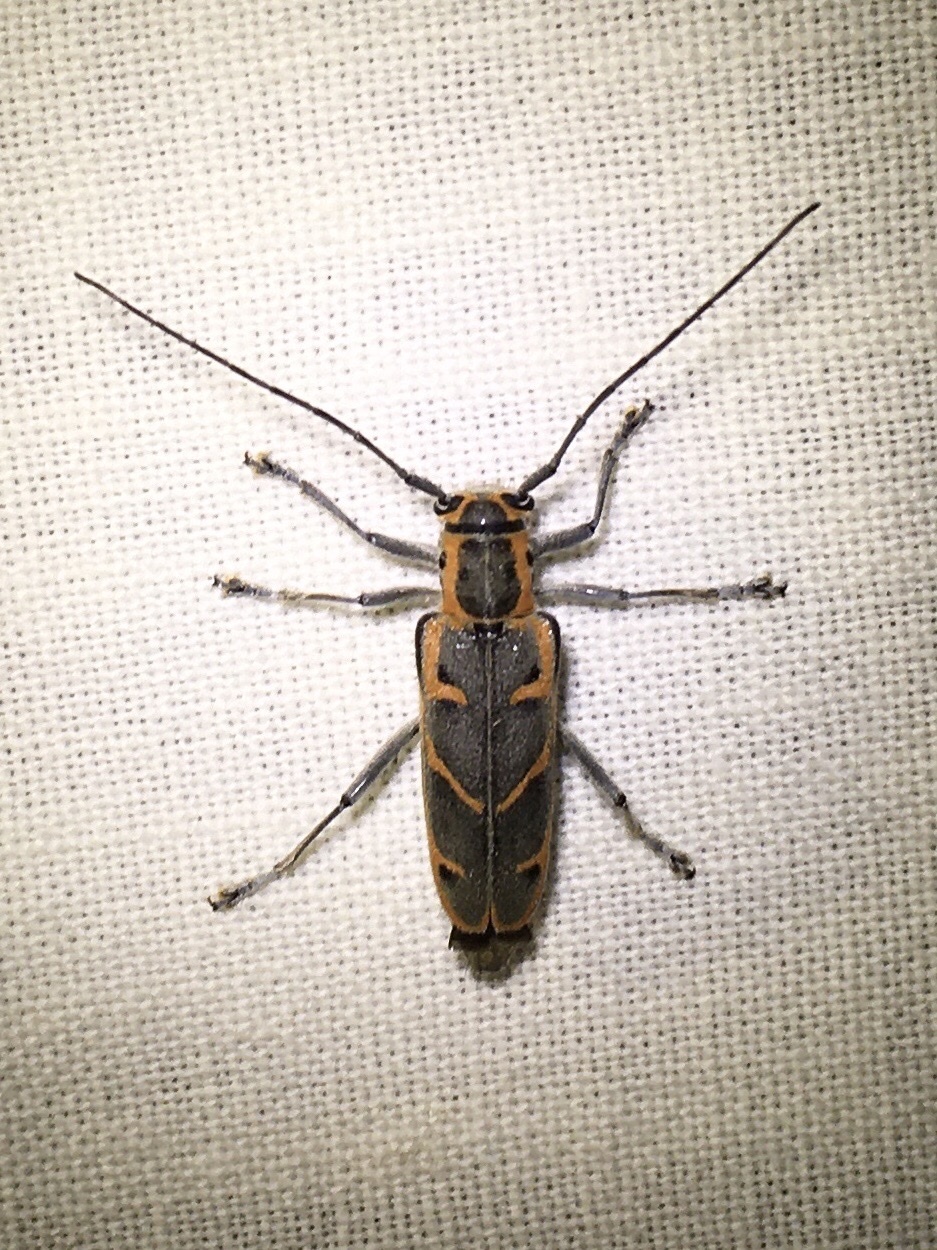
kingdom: Animalia
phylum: Arthropoda
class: Insecta
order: Coleoptera
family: Cerambycidae
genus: Saperda
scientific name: Saperda tridentata
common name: Elm borer
